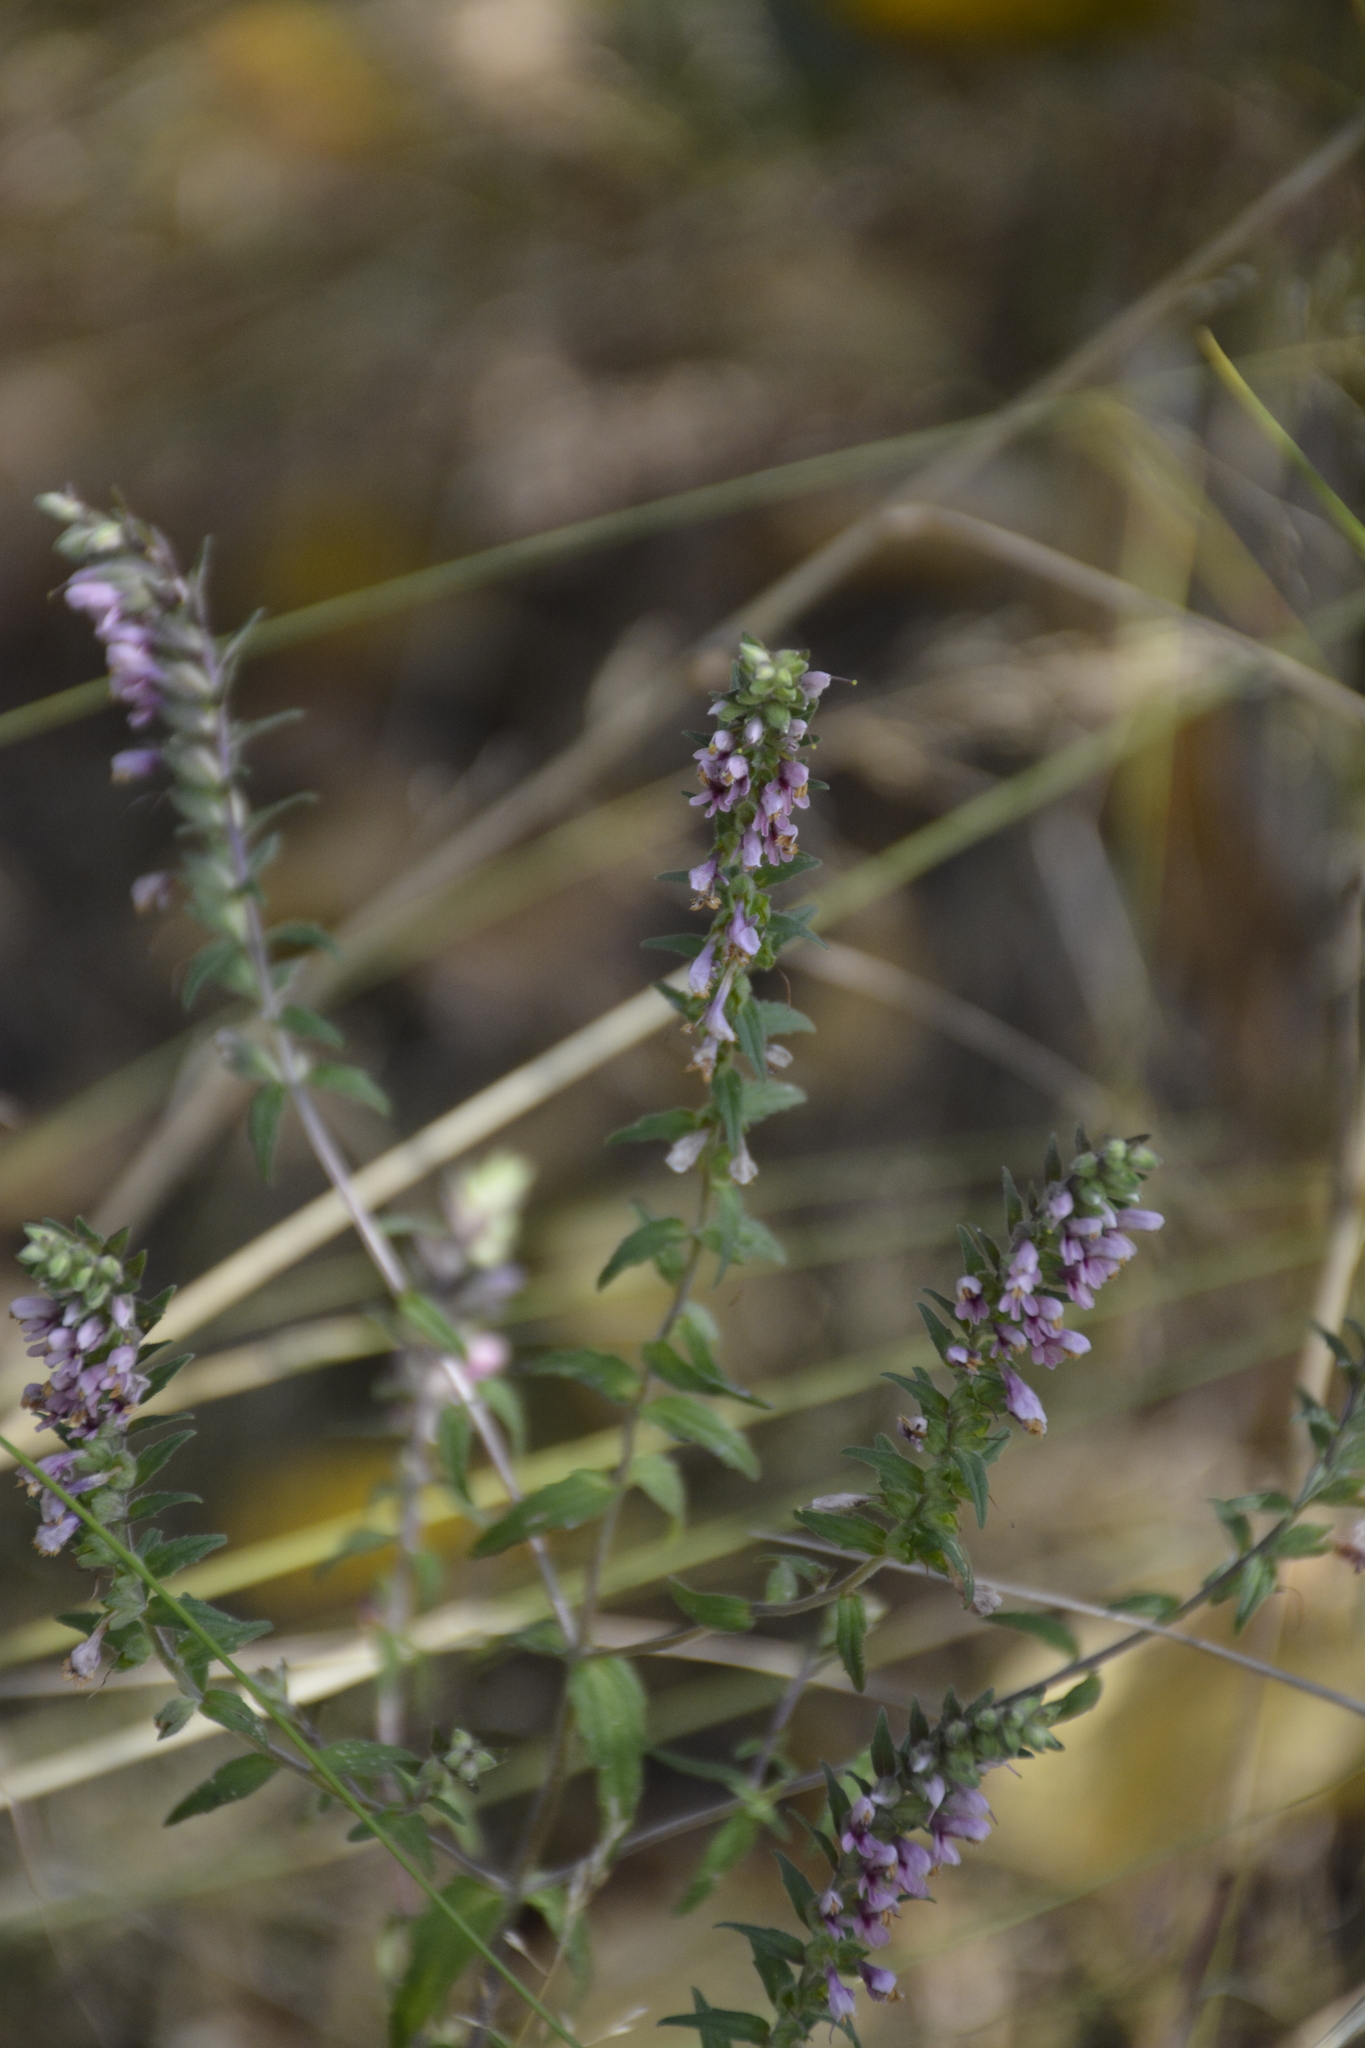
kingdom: Plantae
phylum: Tracheophyta
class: Magnoliopsida
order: Lamiales
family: Orobanchaceae
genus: Odontites
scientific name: Odontites vulgaris
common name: Broomrape
